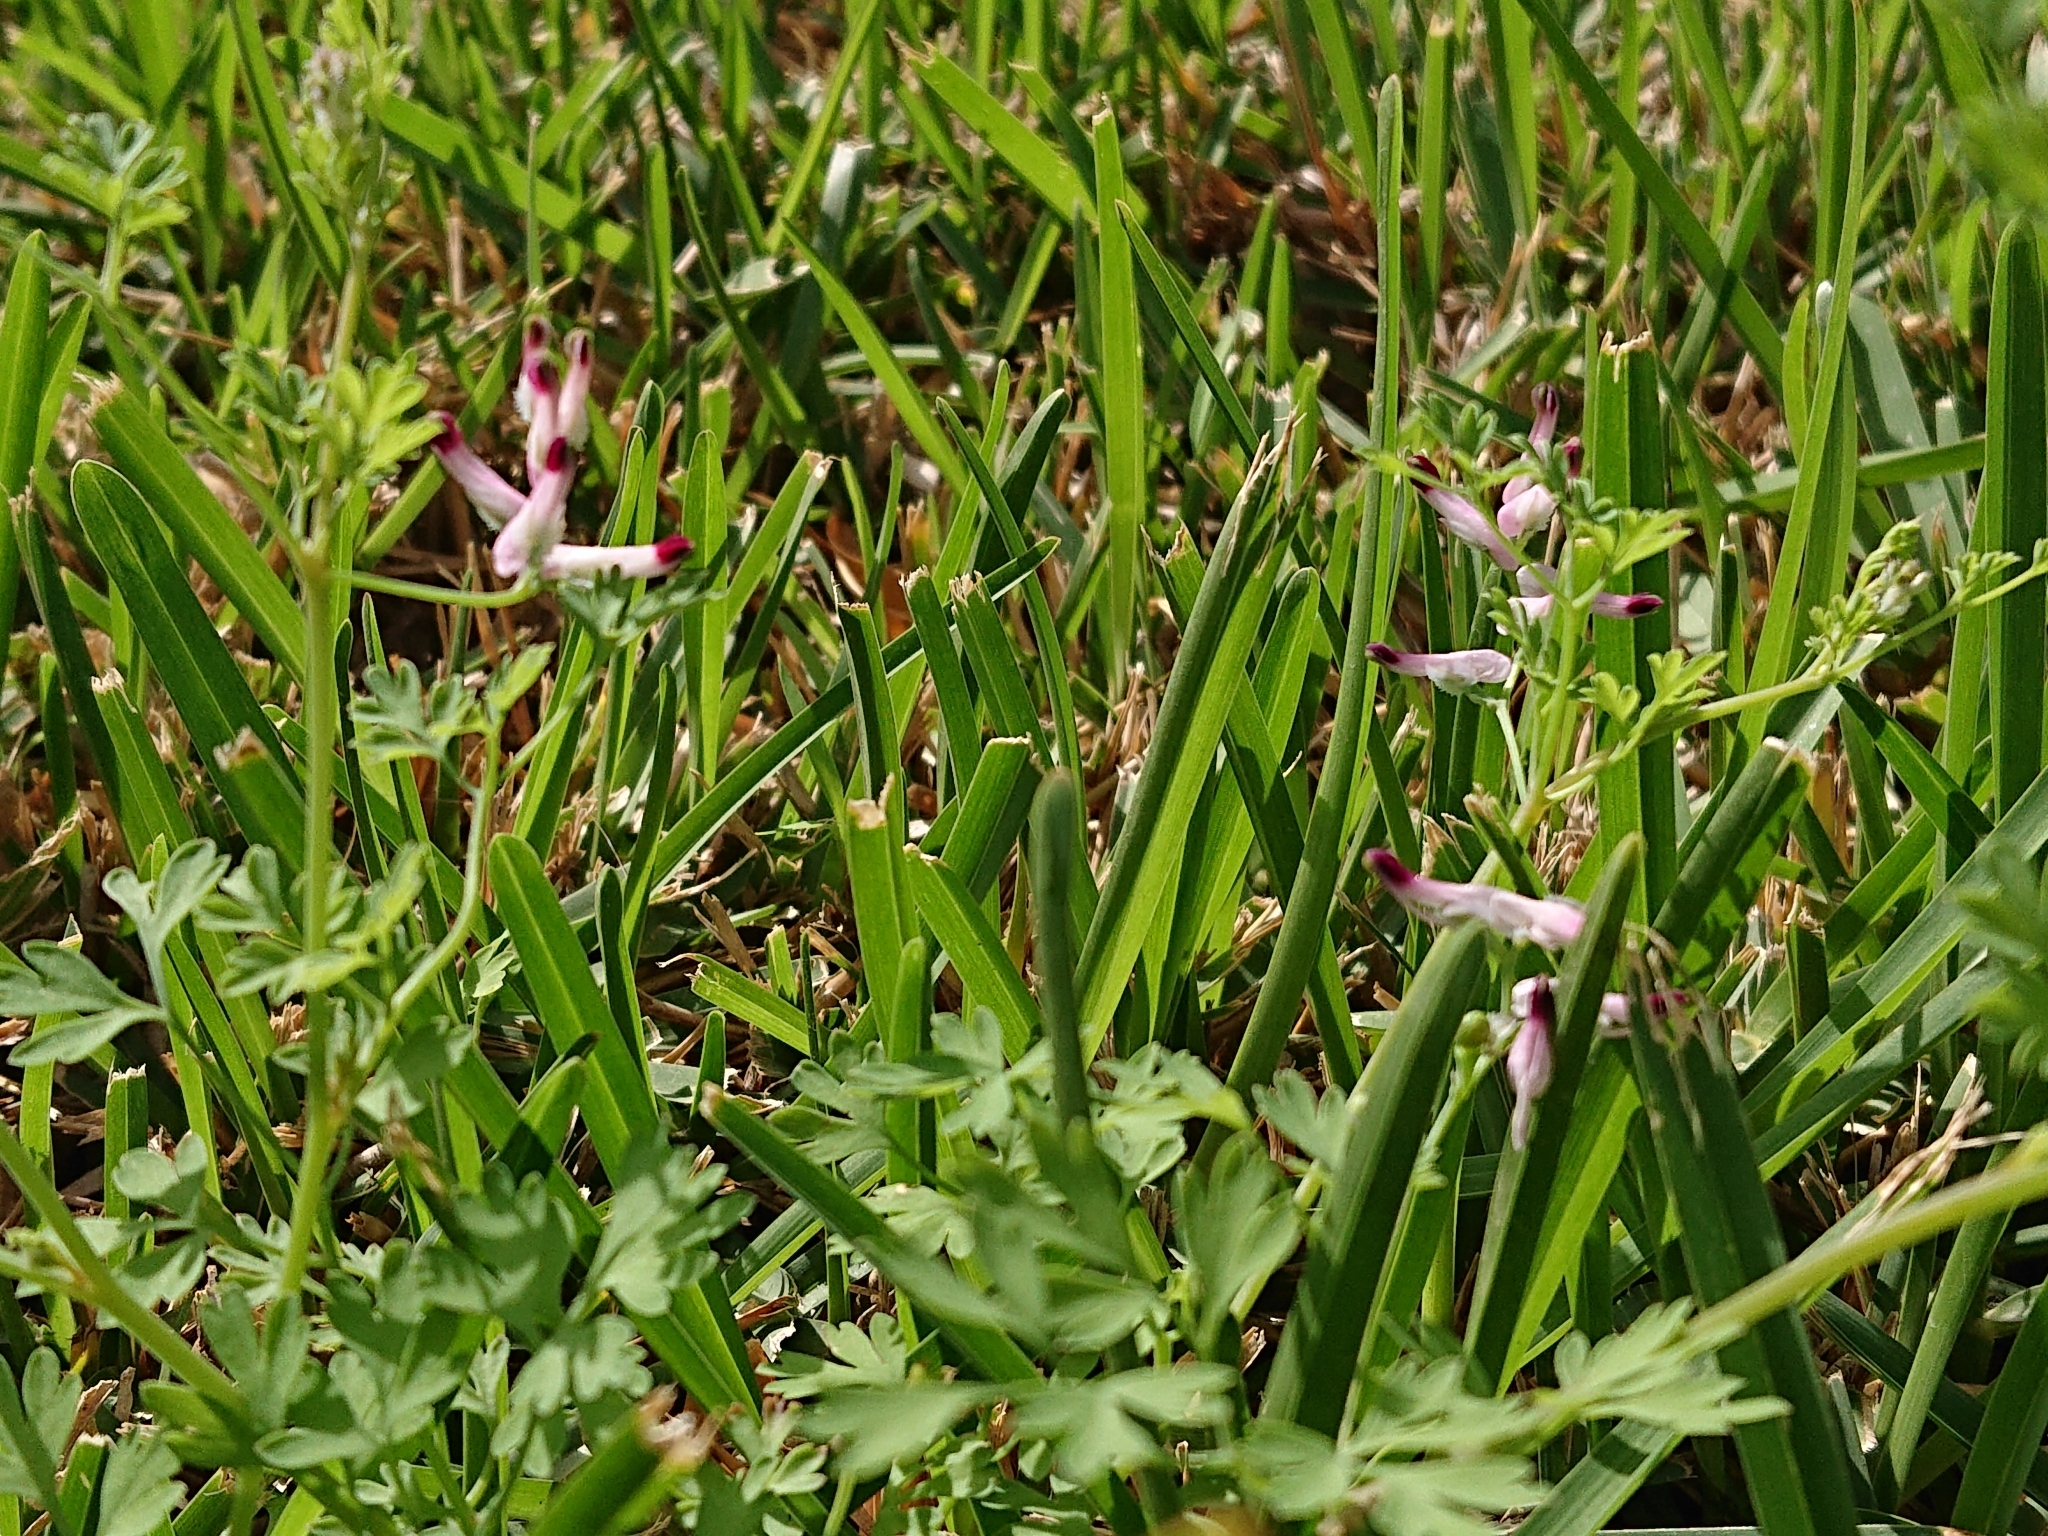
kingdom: Plantae
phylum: Tracheophyta
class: Magnoliopsida
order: Ranunculales
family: Papaveraceae
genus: Fumaria
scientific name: Fumaria muralis
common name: Common ramping-fumitory
